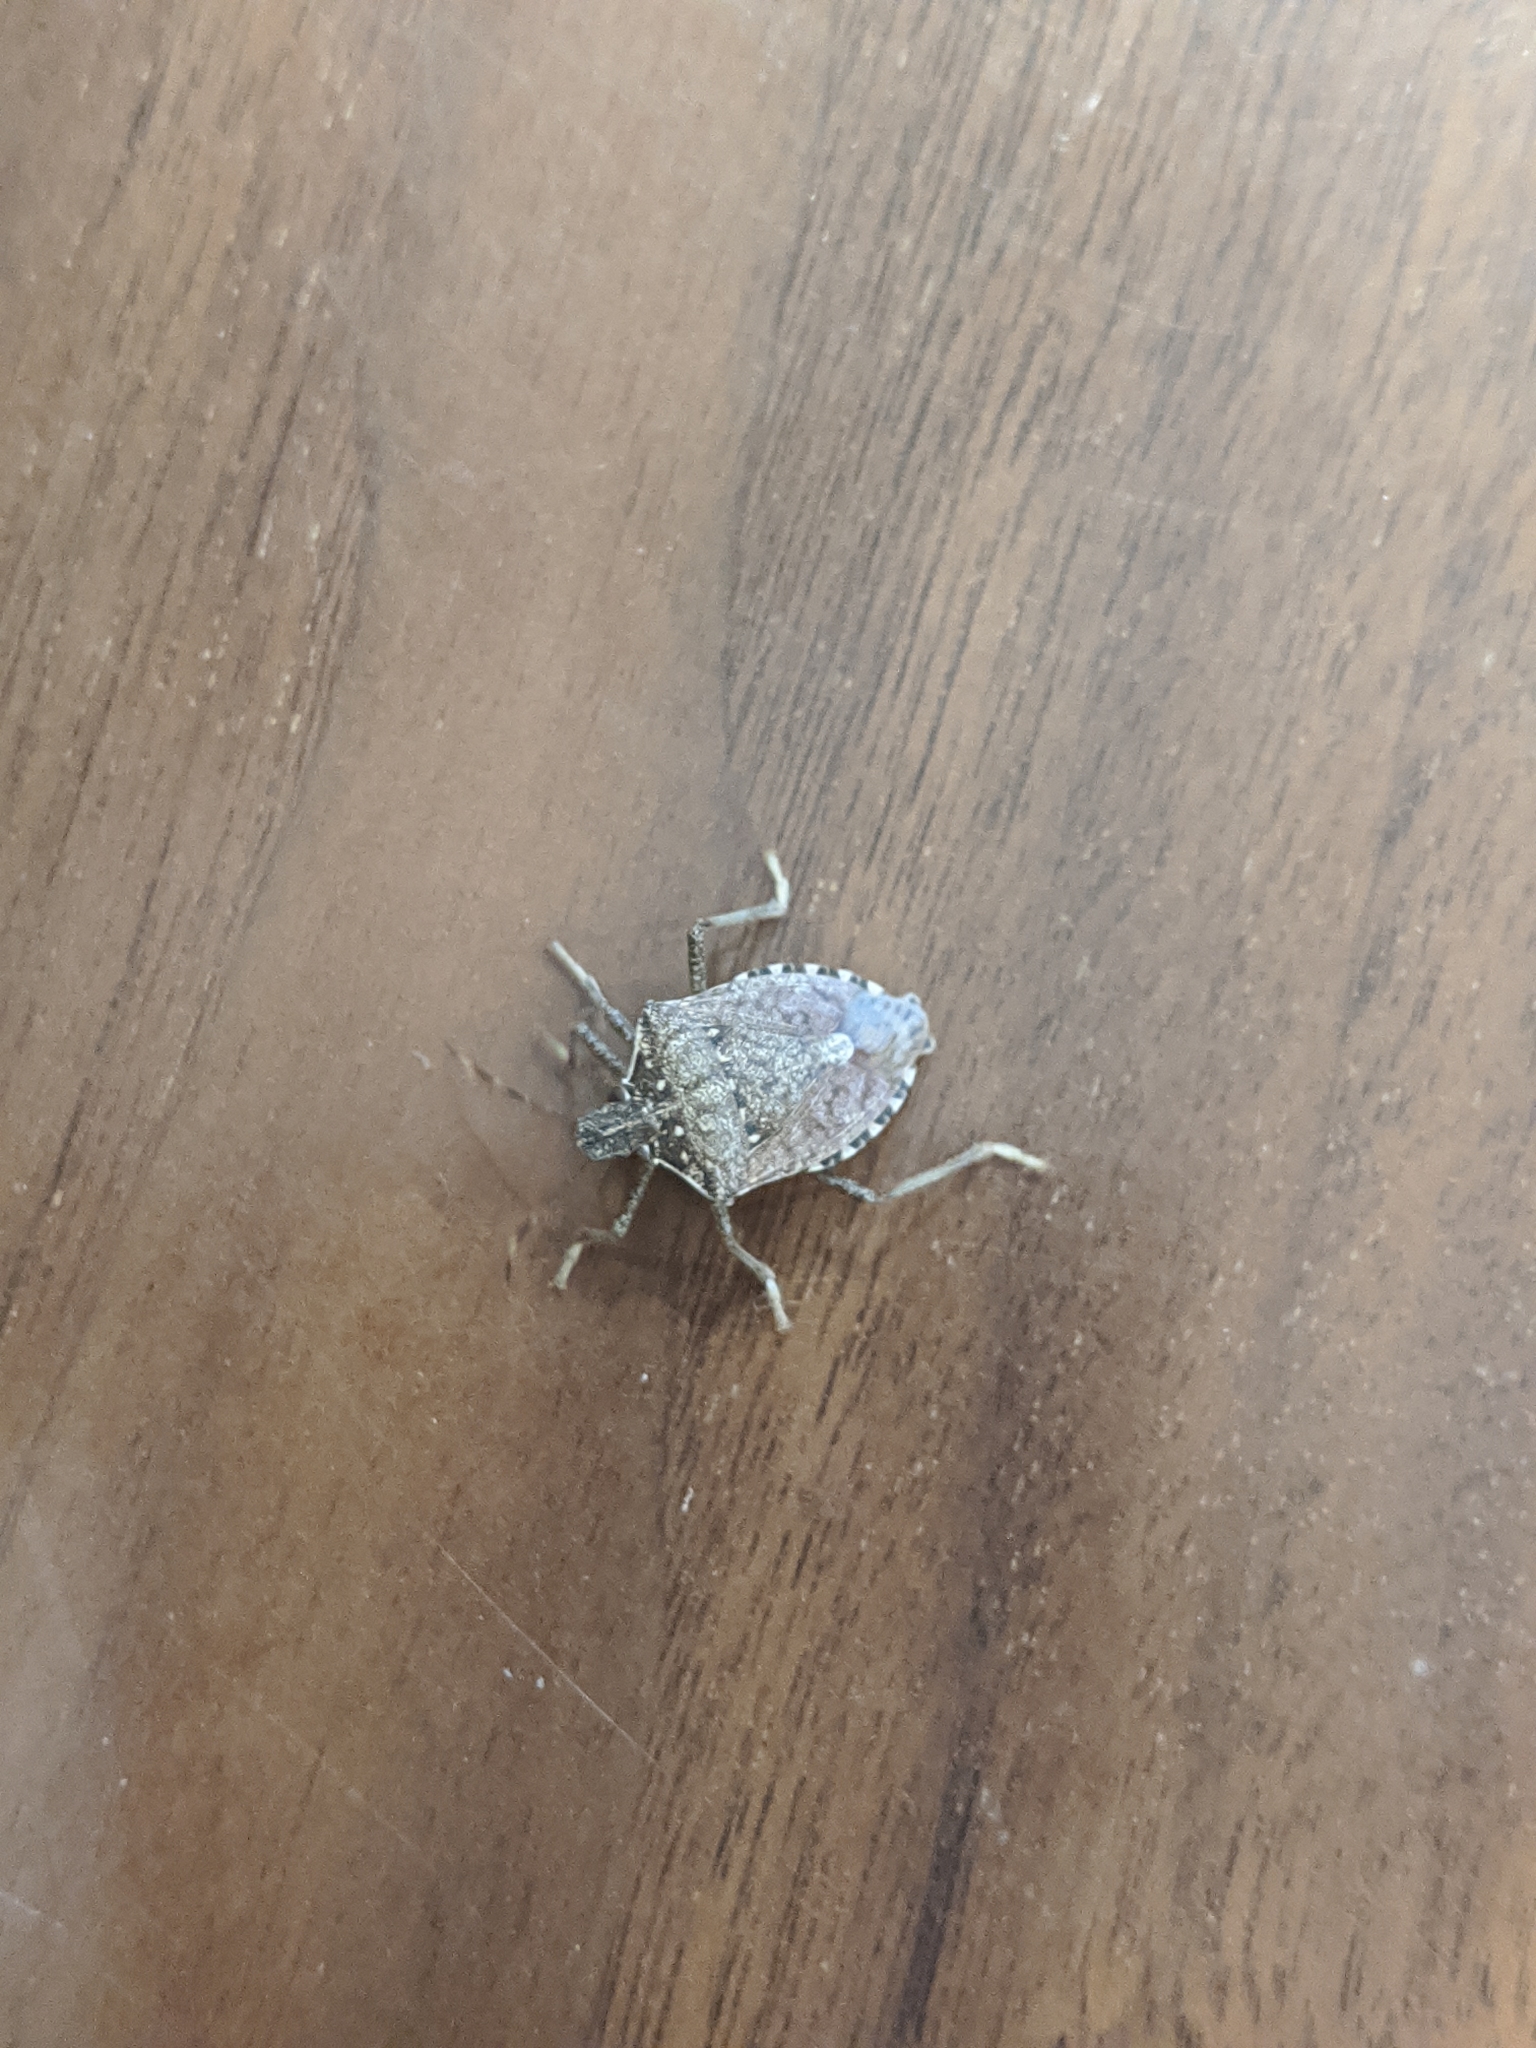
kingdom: Animalia
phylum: Arthropoda
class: Insecta
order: Hemiptera
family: Pentatomidae
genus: Halyomorpha
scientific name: Halyomorpha halys
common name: Brown marmorated stink bug
